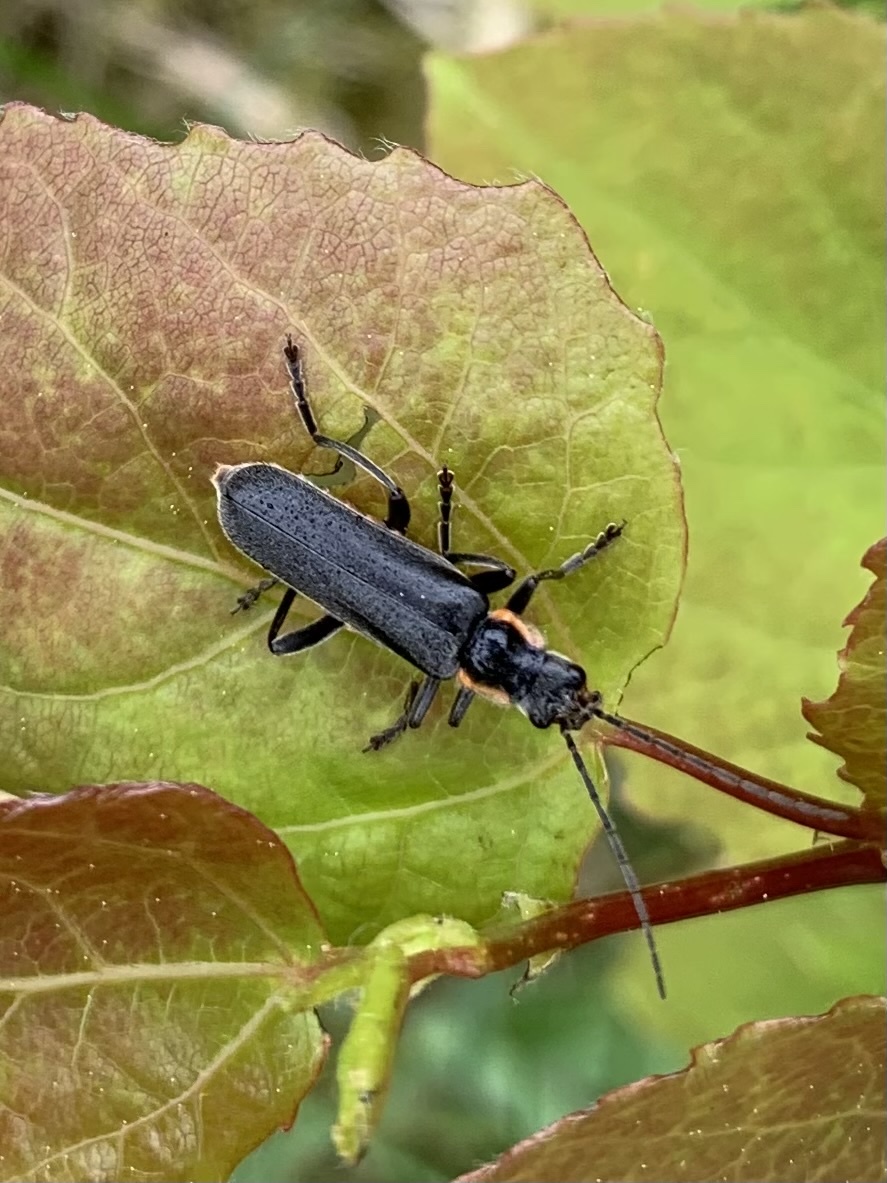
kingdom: Animalia
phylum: Arthropoda
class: Insecta
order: Coleoptera
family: Cantharidae
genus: Cantharis
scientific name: Cantharis obscura
